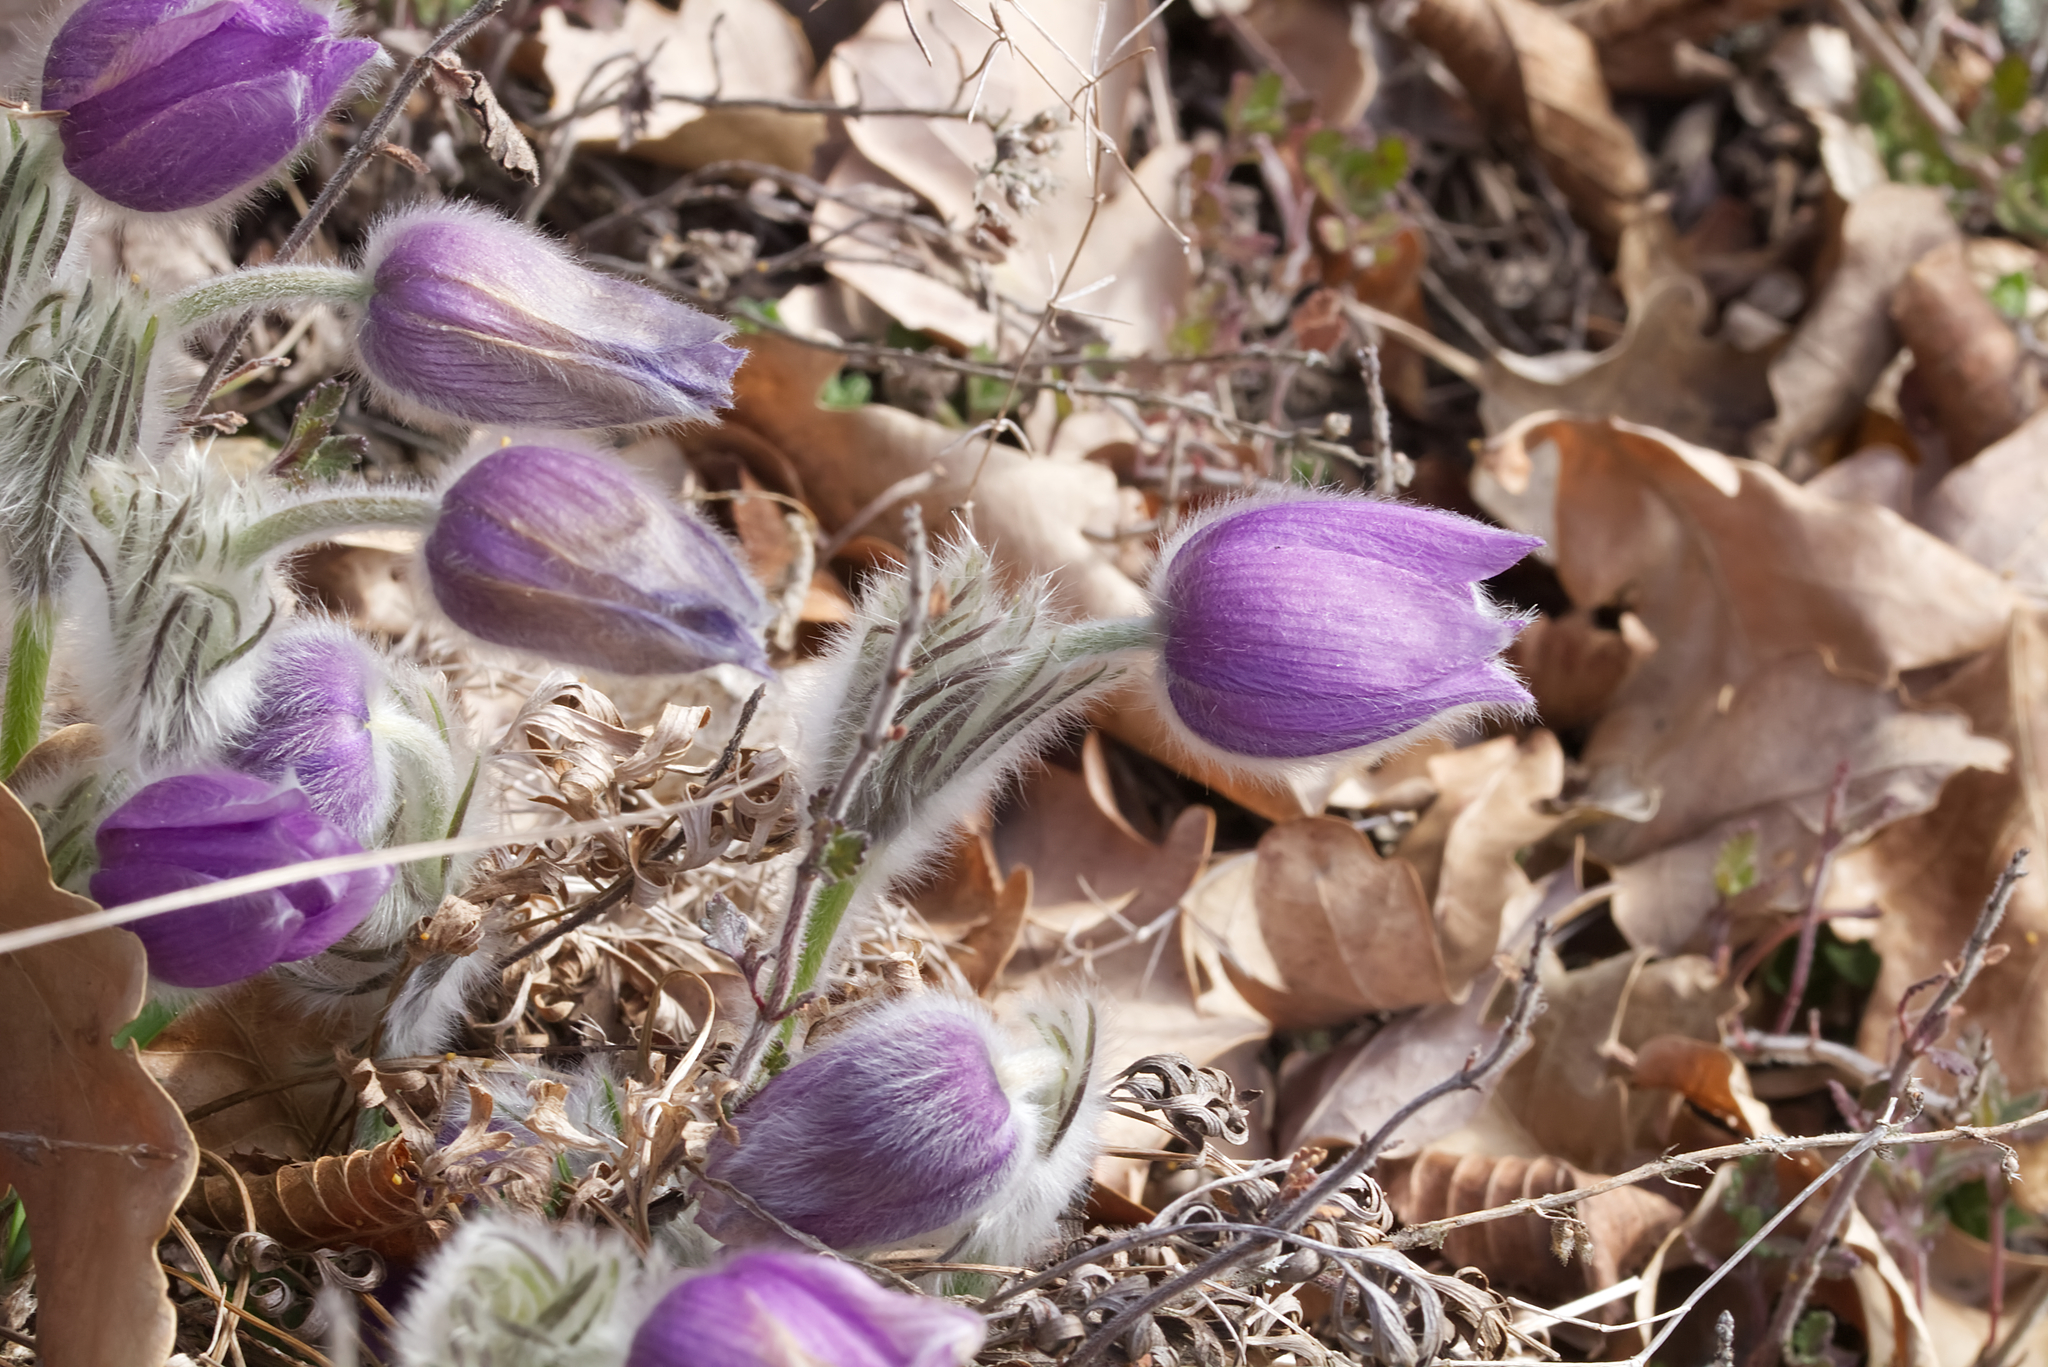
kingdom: Plantae
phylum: Tracheophyta
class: Magnoliopsida
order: Ranunculales
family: Ranunculaceae
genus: Pulsatilla
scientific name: Pulsatilla grandis
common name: Greater pasque flower
